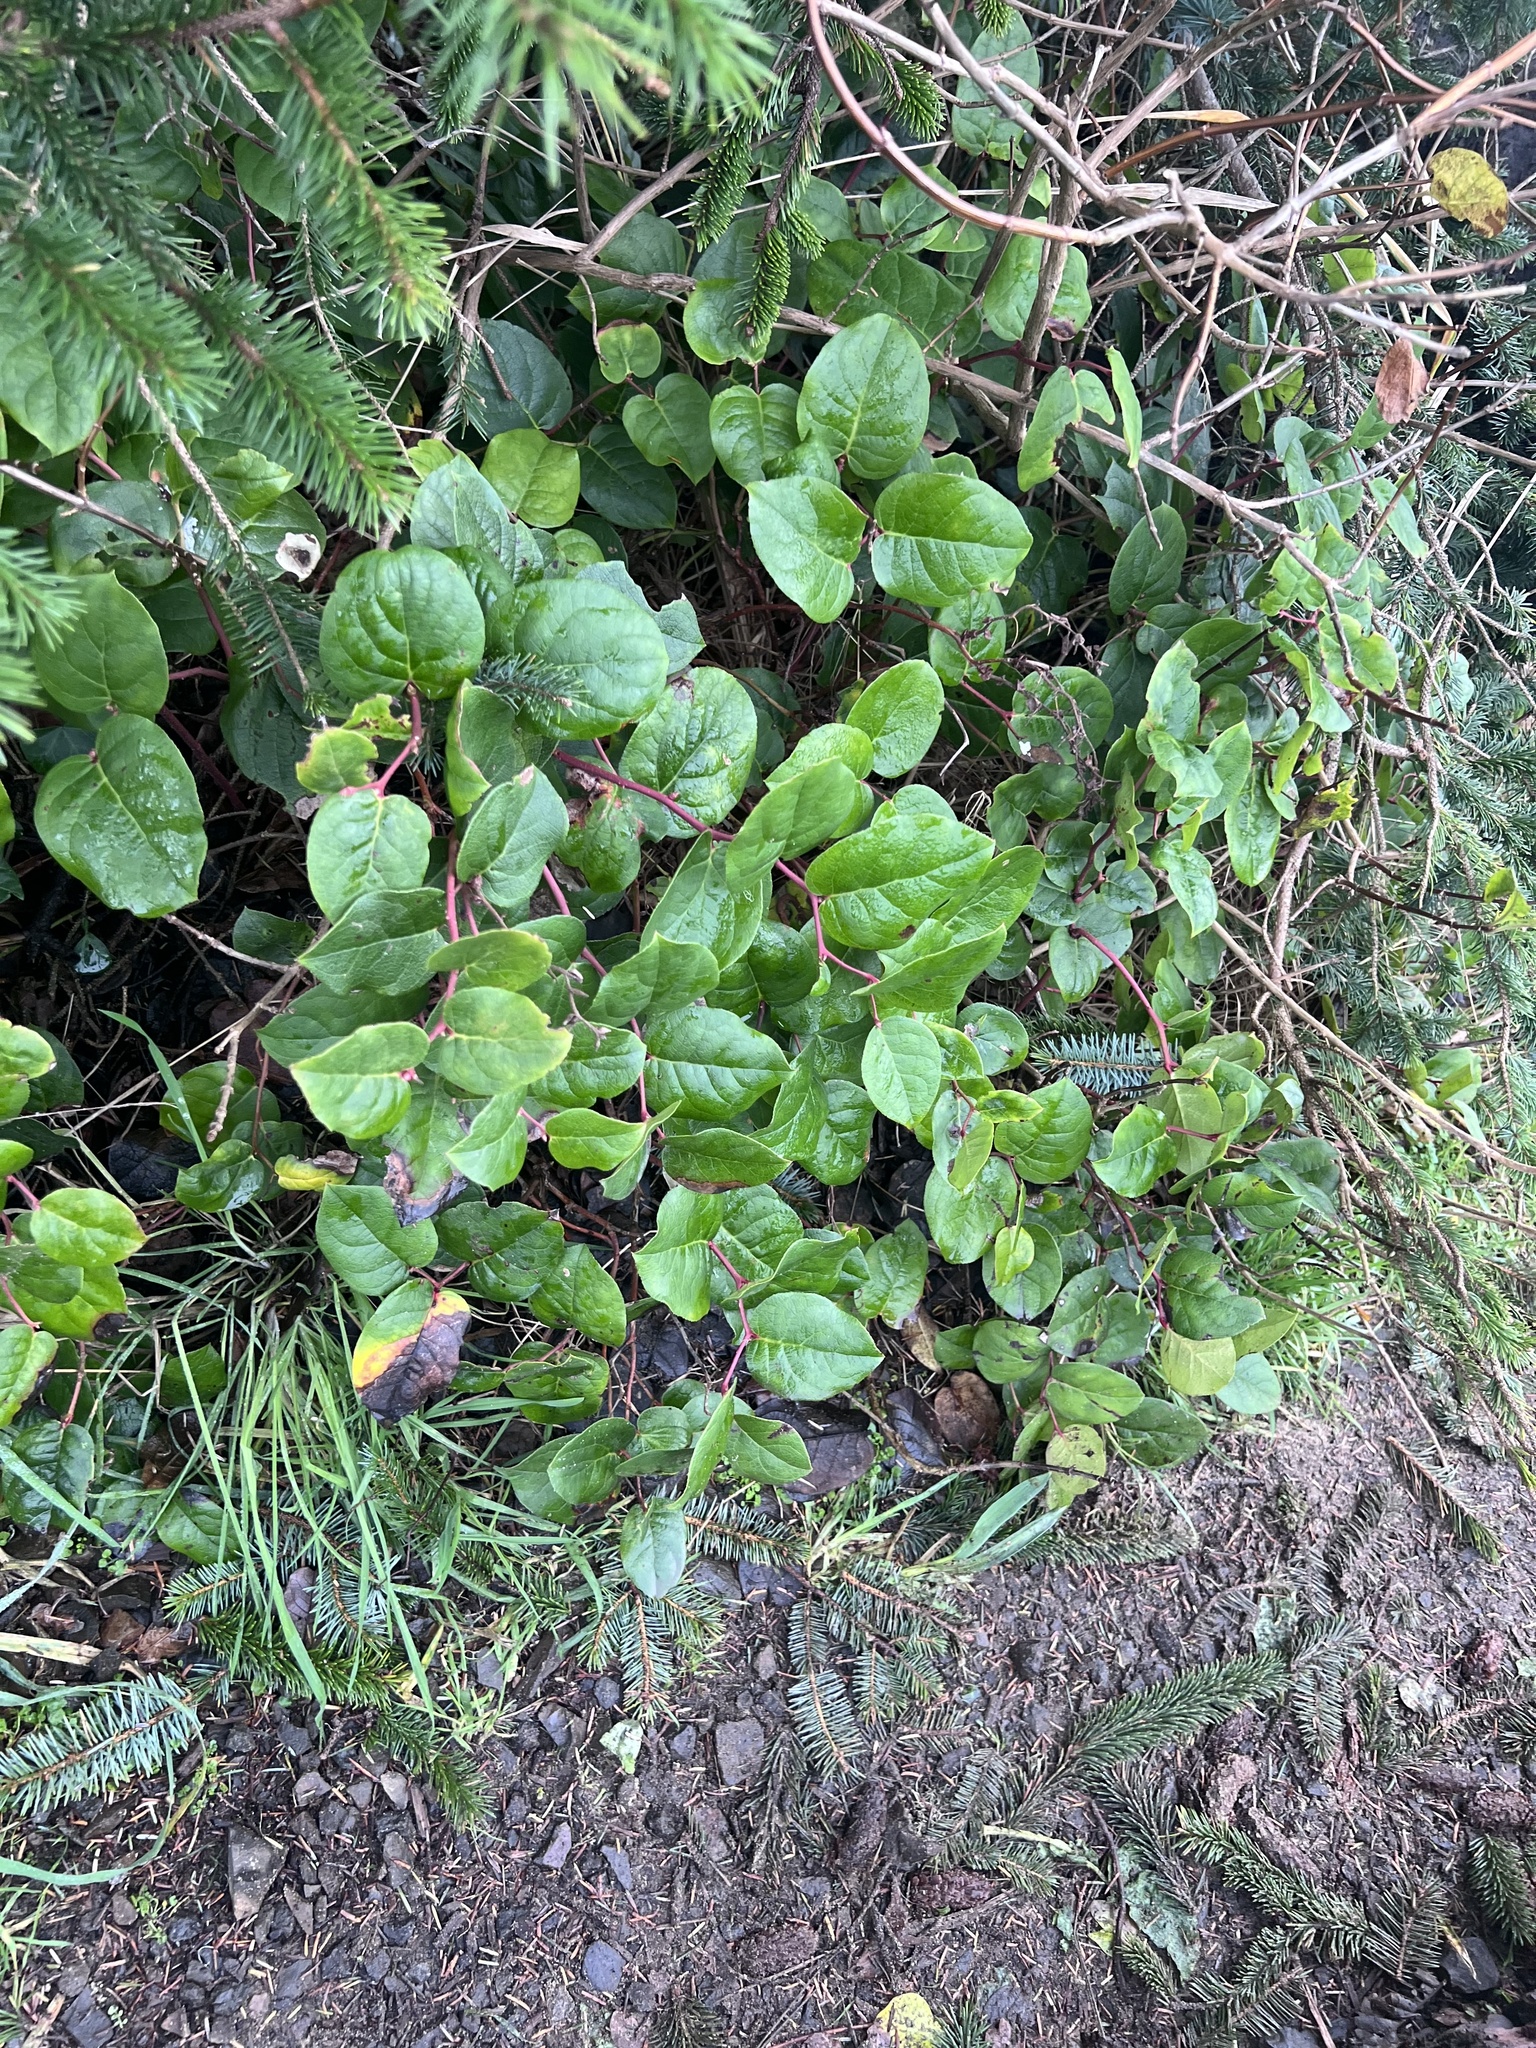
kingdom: Plantae
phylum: Tracheophyta
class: Magnoliopsida
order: Ericales
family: Ericaceae
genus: Gaultheria
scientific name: Gaultheria shallon
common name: Shallon
